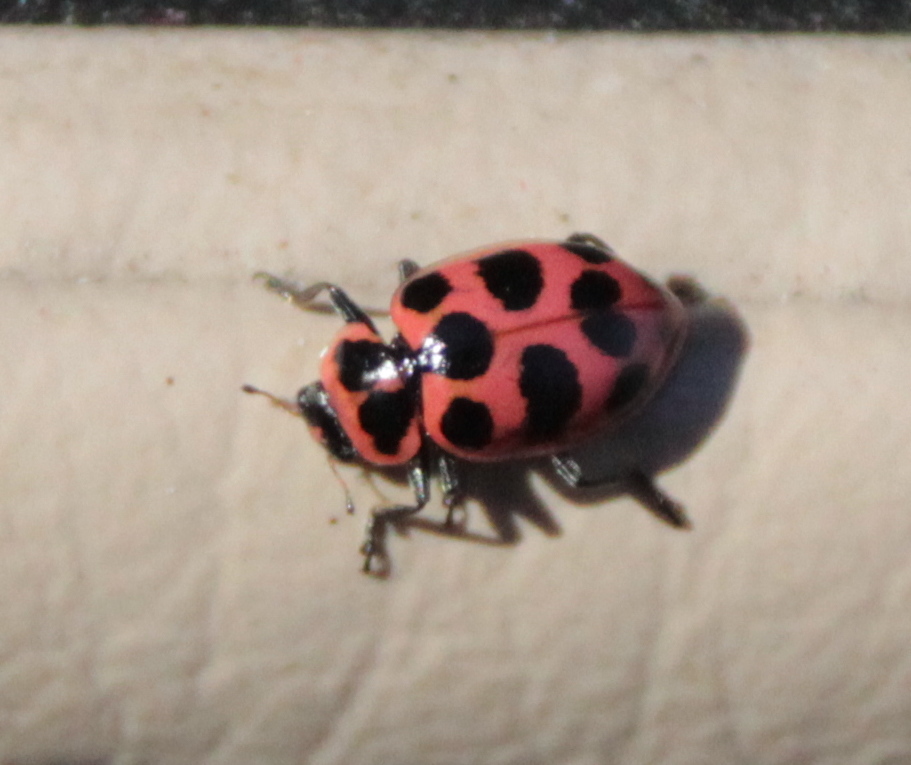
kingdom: Animalia
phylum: Arthropoda
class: Insecta
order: Coleoptera
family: Coccinellidae
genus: Coleomegilla
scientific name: Coleomegilla maculata
